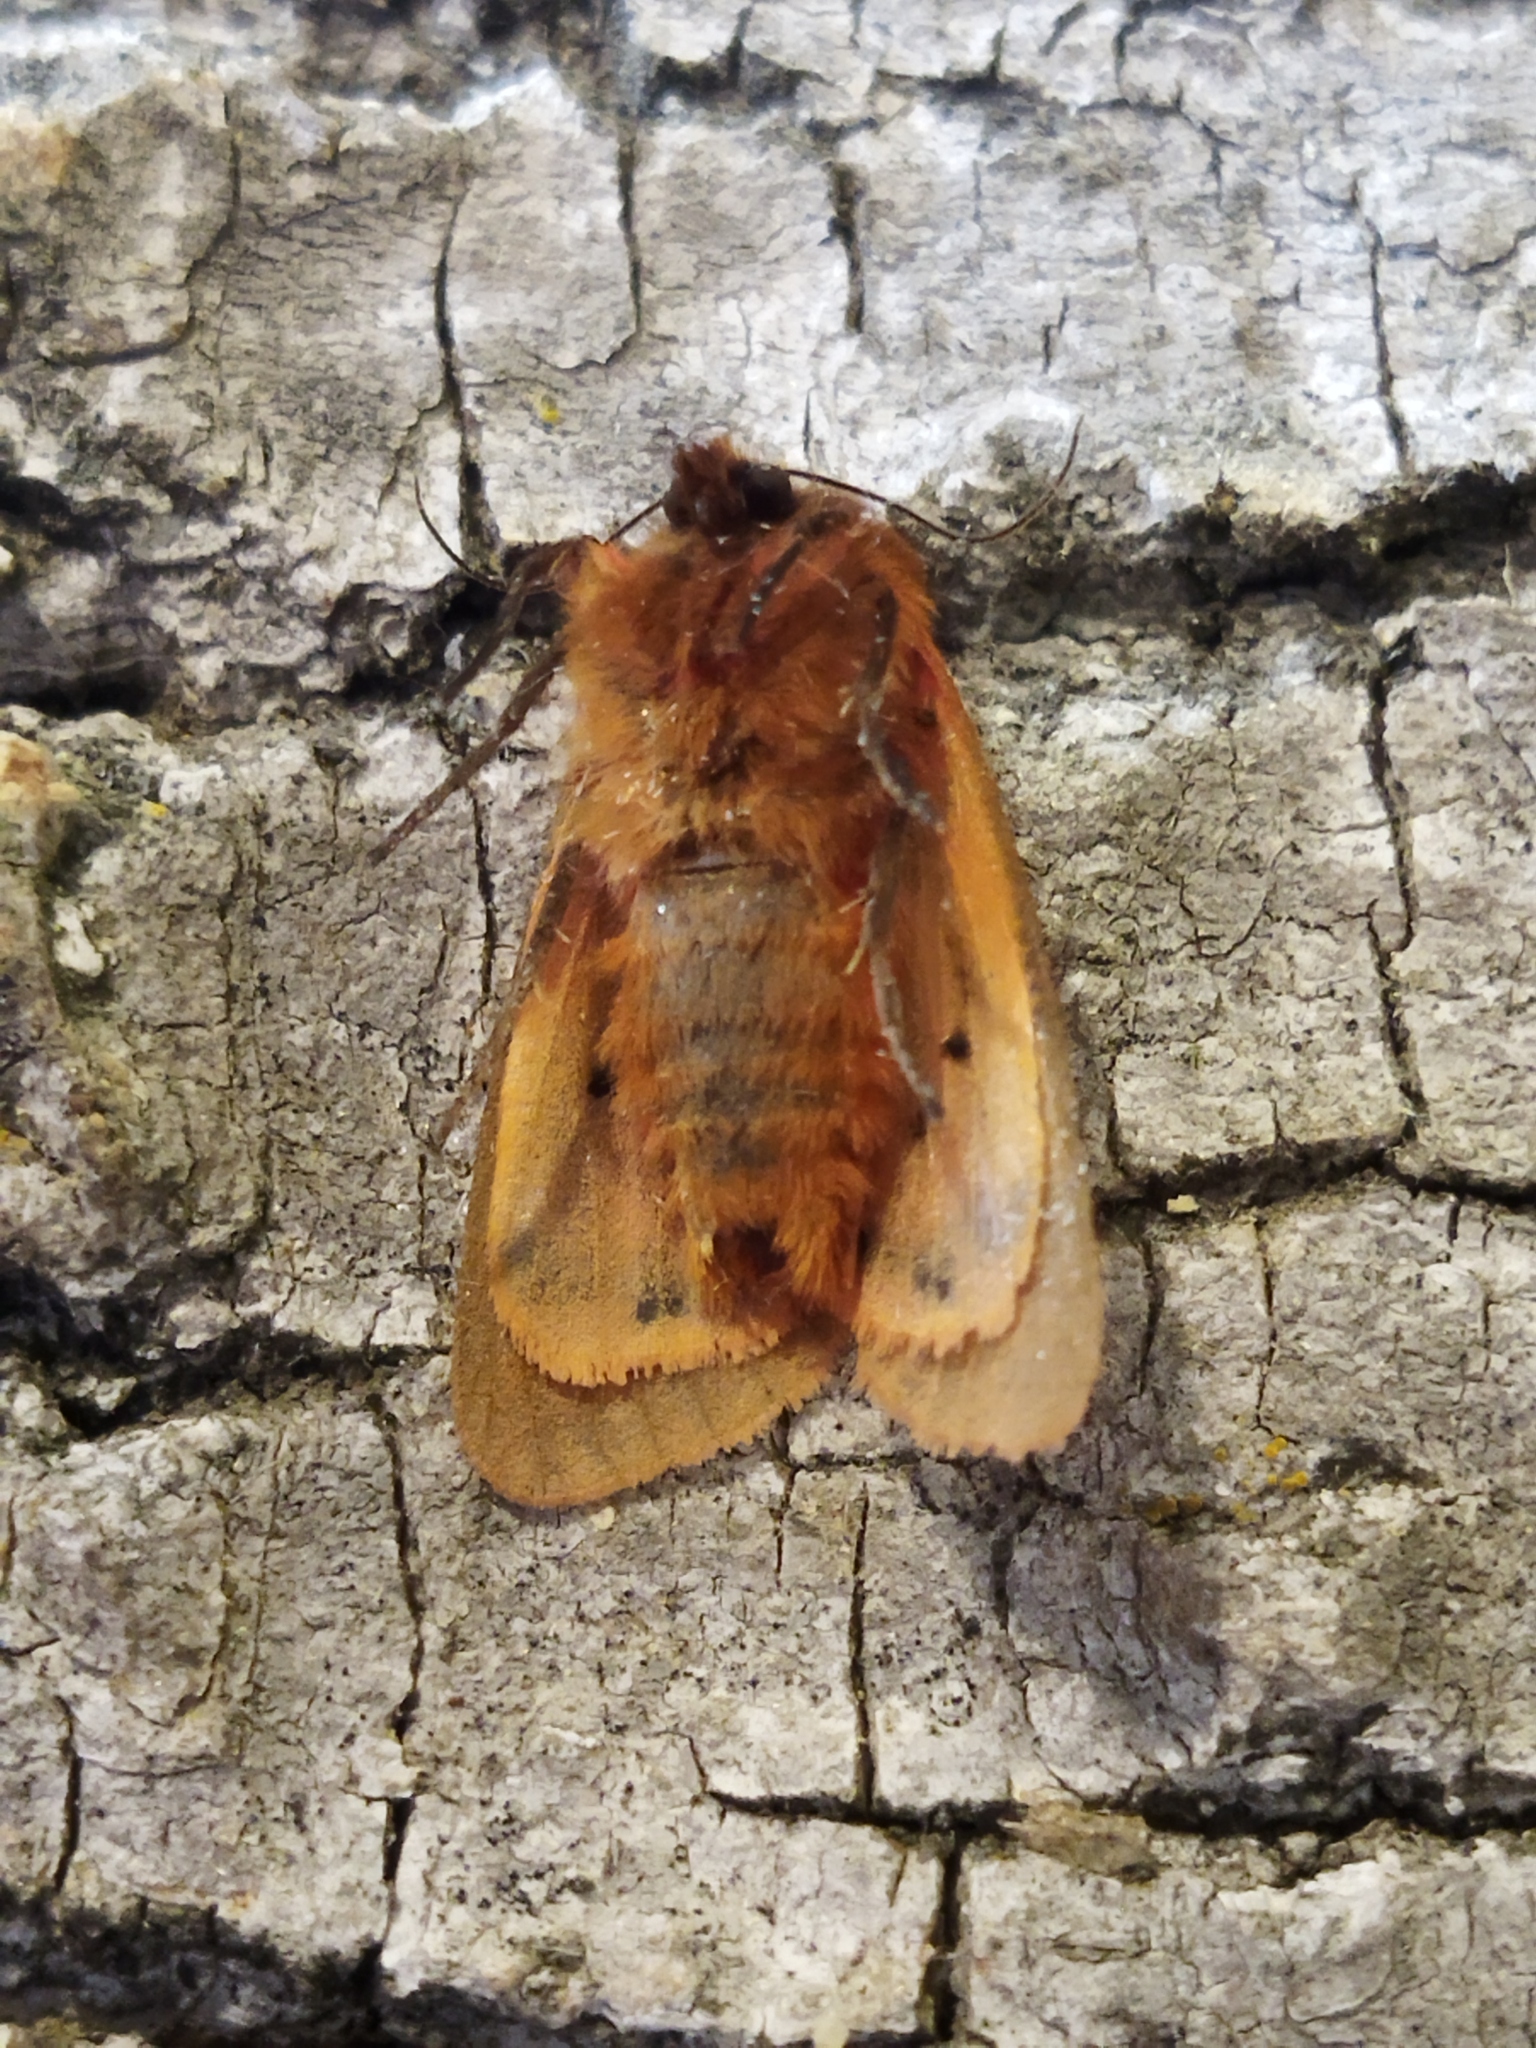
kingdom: Animalia
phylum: Arthropoda
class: Insecta
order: Lepidoptera
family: Erebidae
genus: Phragmatobia
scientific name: Phragmatobia fuliginosa
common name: Ruby tiger
